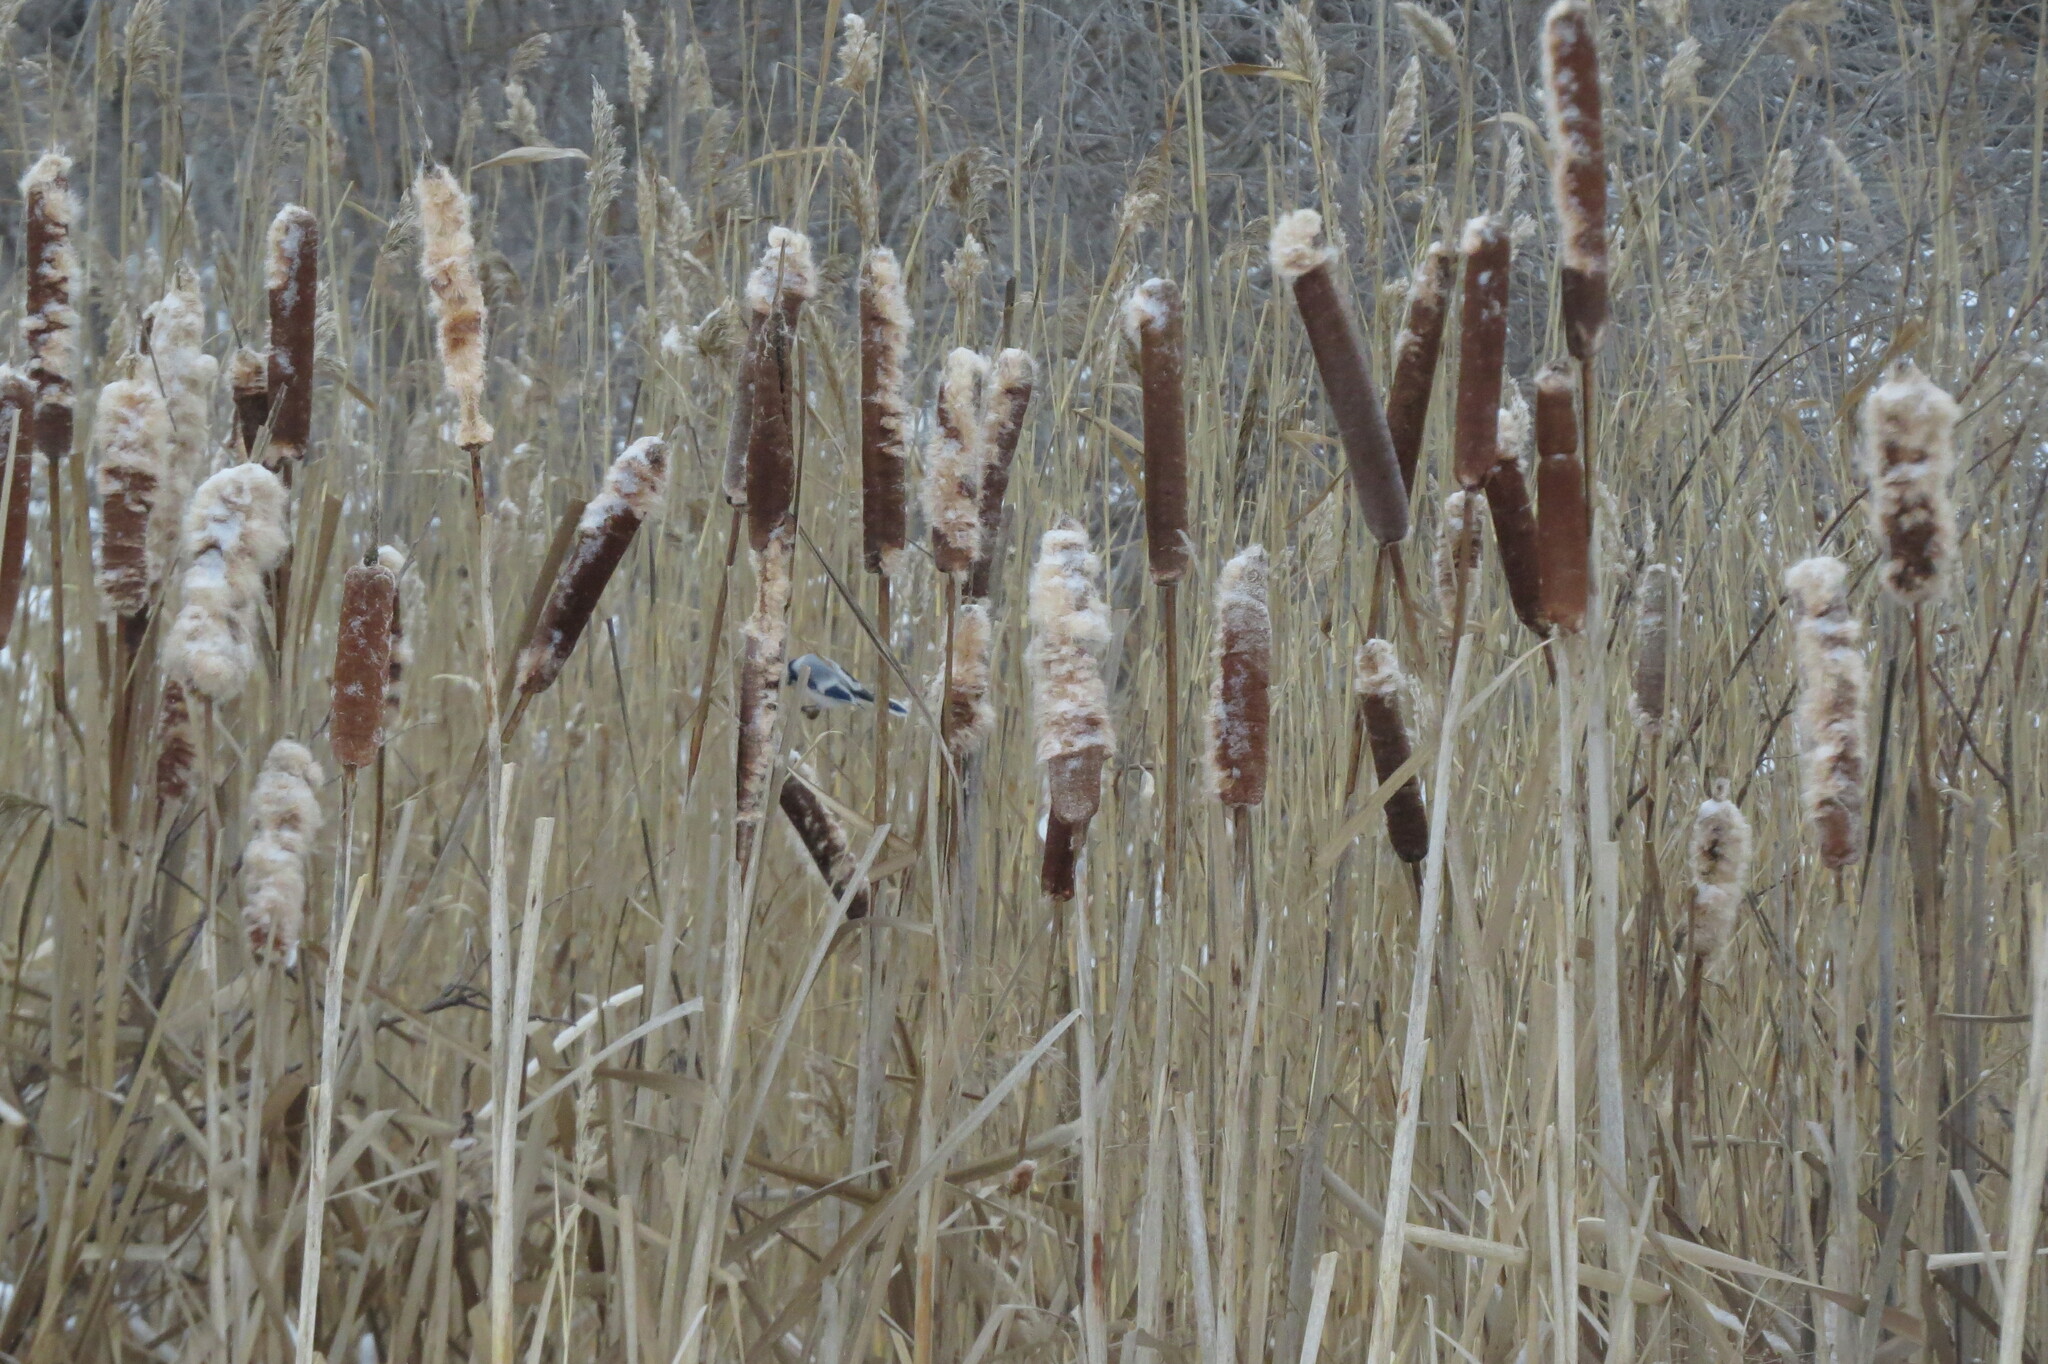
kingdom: Animalia
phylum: Chordata
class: Aves
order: Passeriformes
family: Paridae
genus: Cyanistes
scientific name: Cyanistes cyanus
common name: Azure tit
